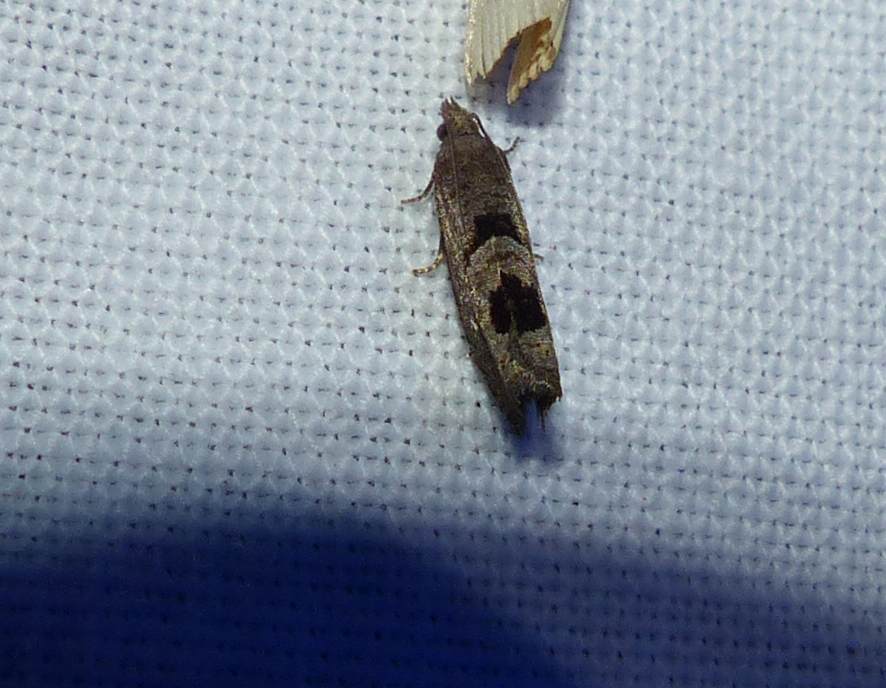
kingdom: Animalia
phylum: Arthropoda
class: Insecta
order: Lepidoptera
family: Tortricidae
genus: Eucosma
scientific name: Eucosma tomonana
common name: Aster-head eucosma moth
